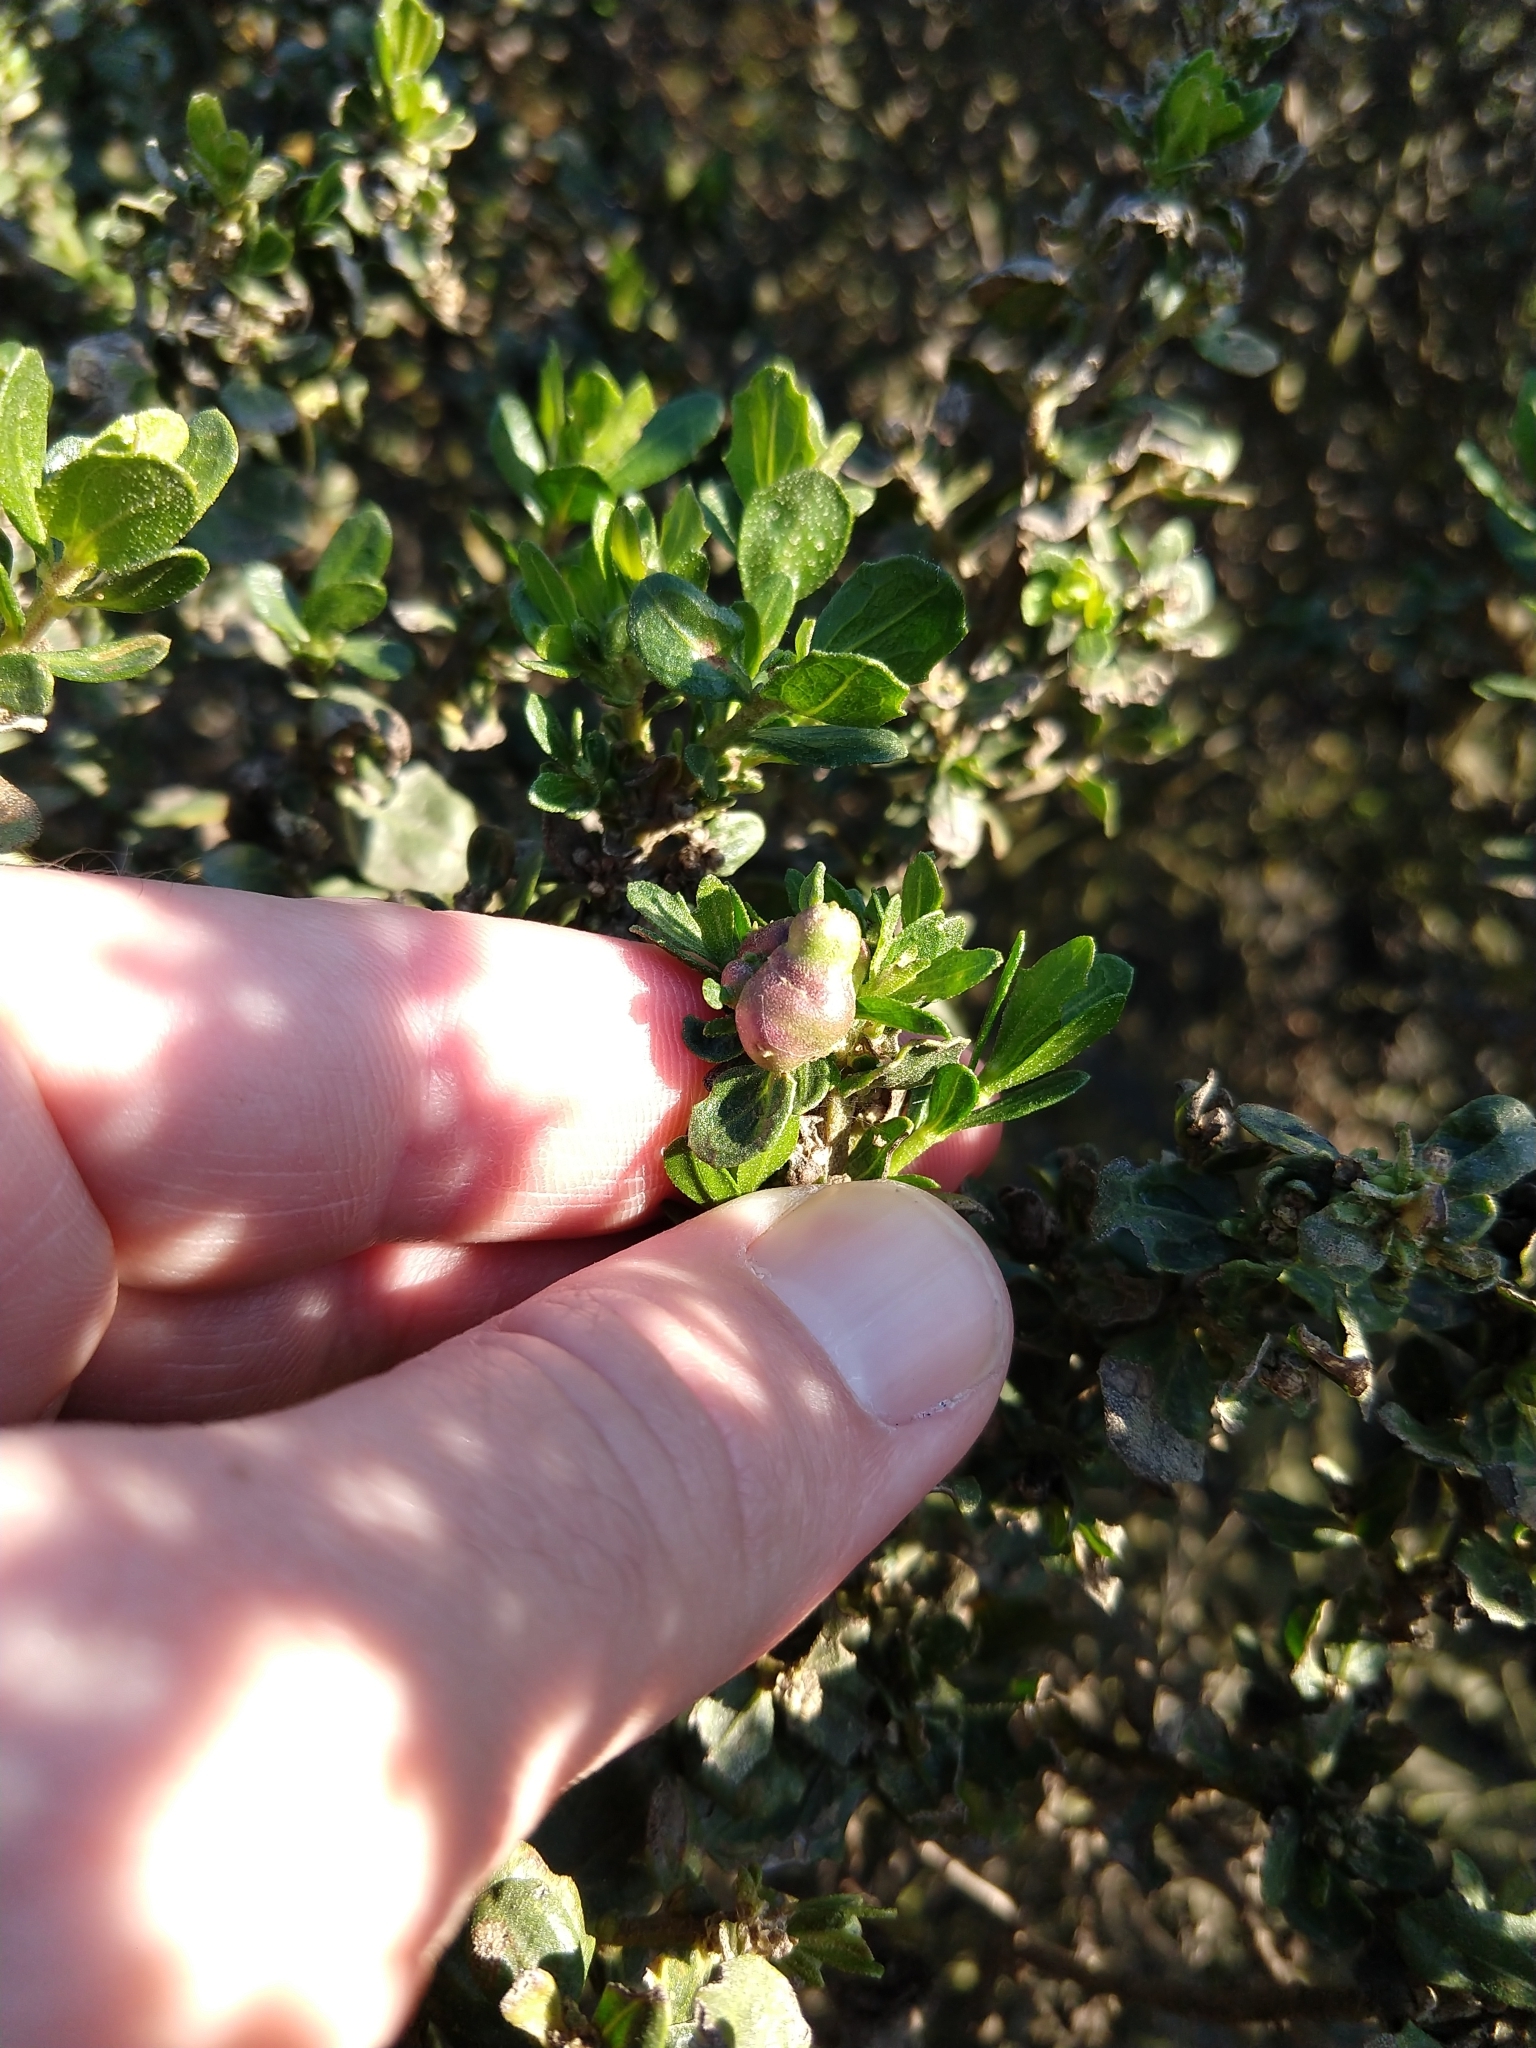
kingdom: Animalia
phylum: Arthropoda
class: Insecta
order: Diptera
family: Cecidomyiidae
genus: Rhopalomyia
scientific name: Rhopalomyia californica
